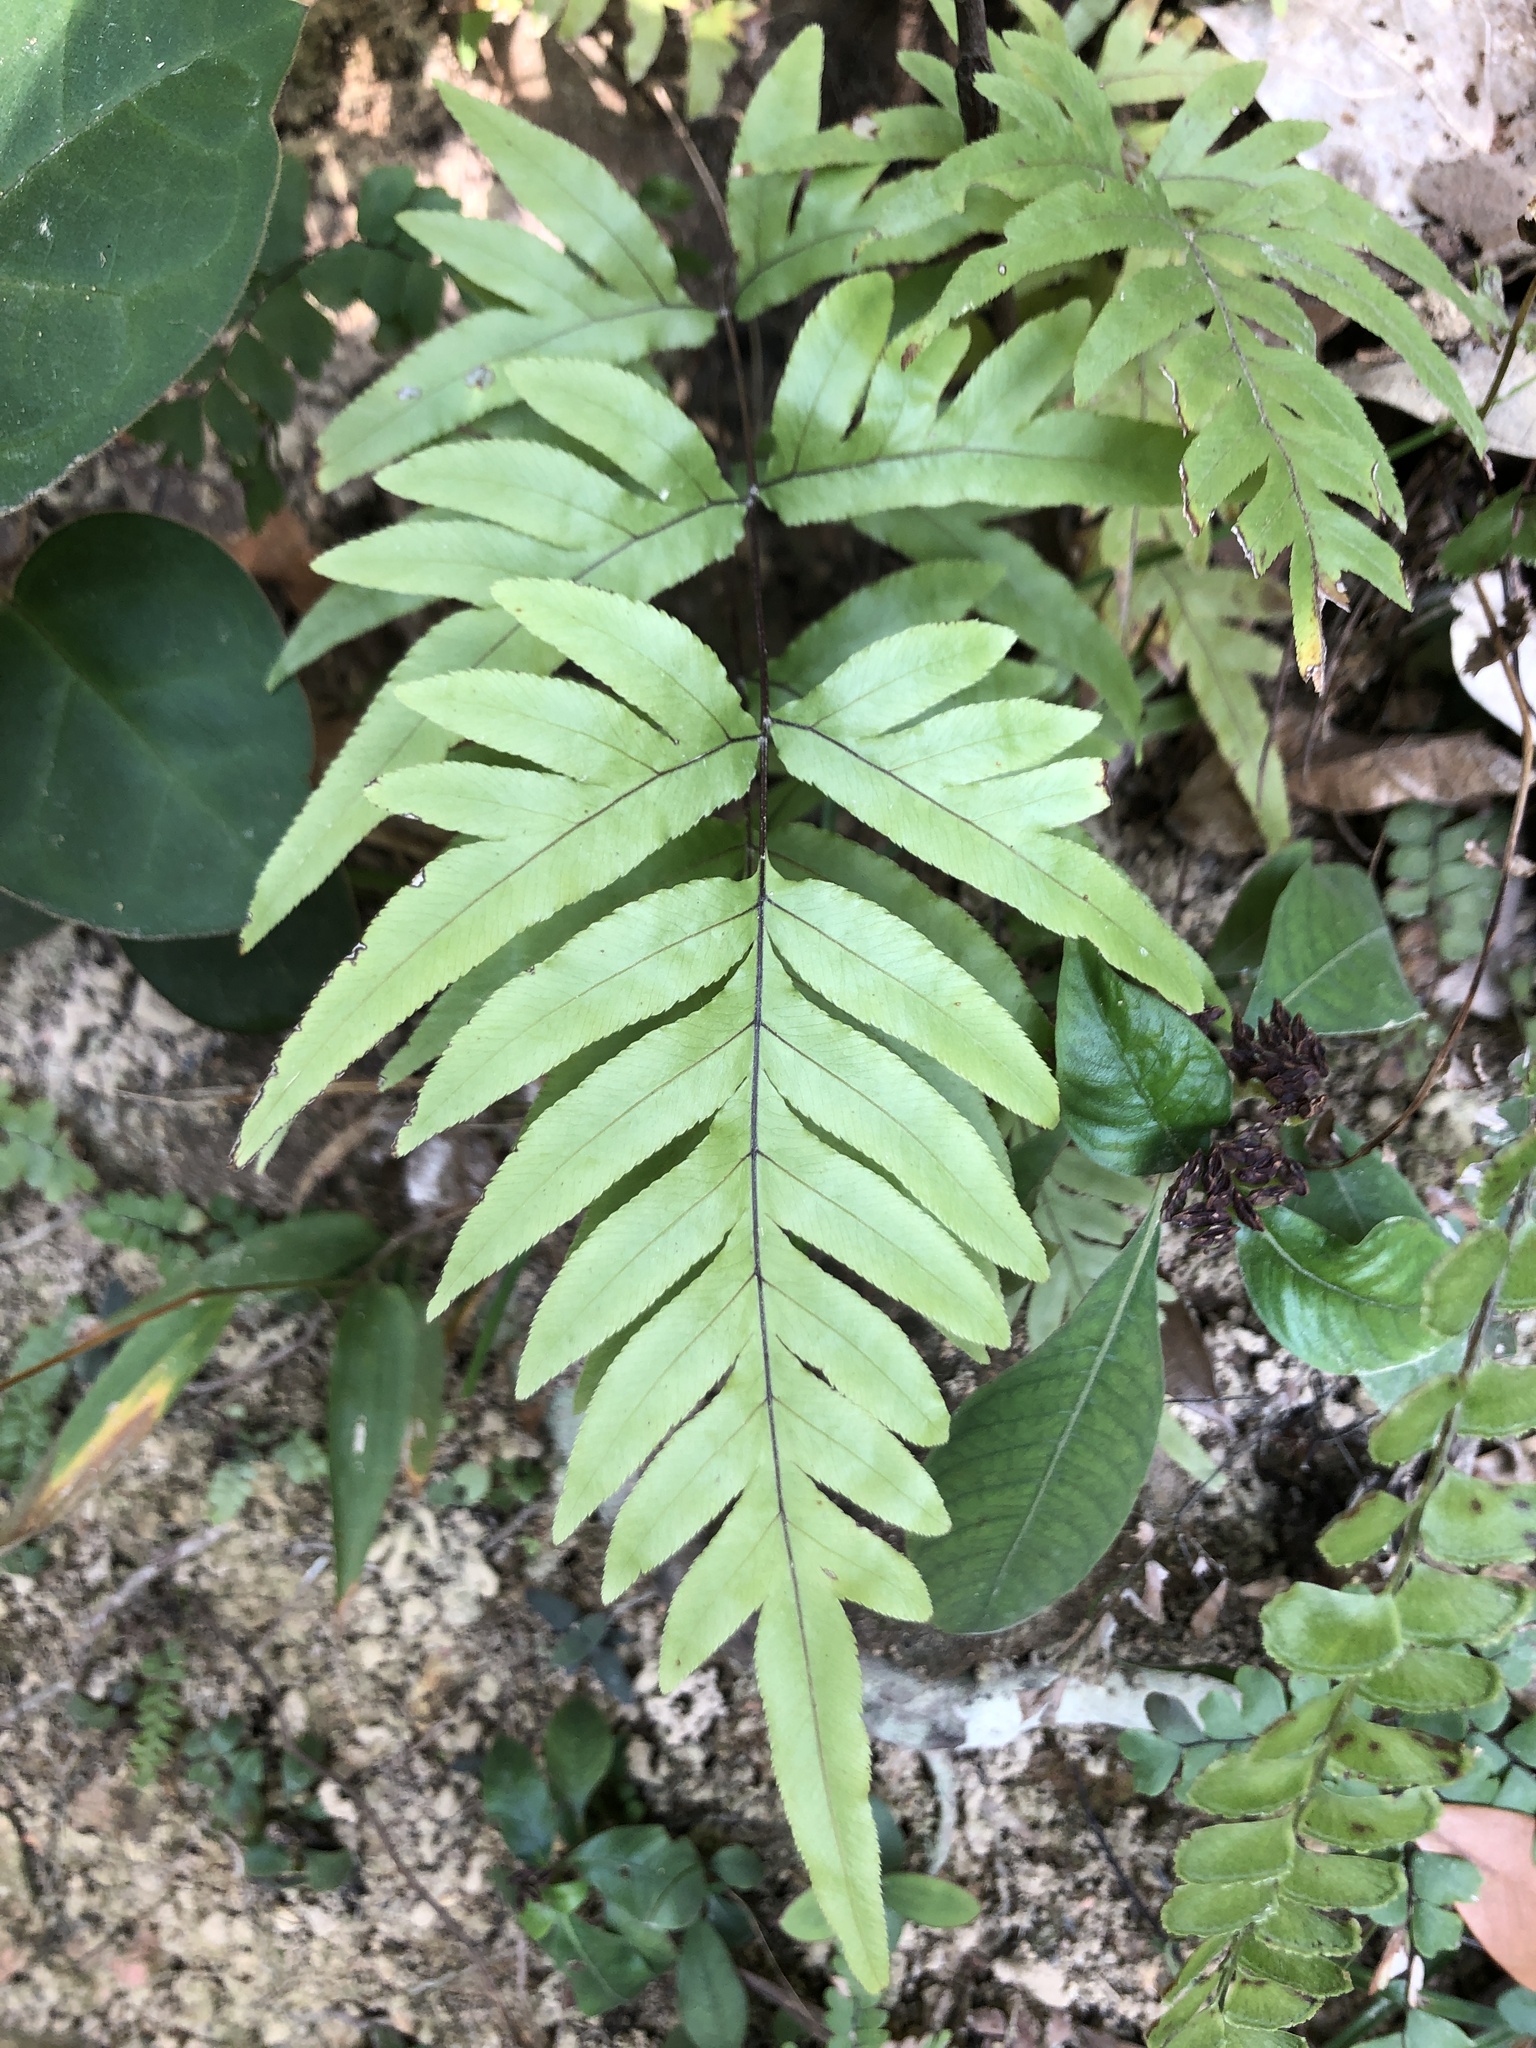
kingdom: Plantae
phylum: Tracheophyta
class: Polypodiopsida
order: Polypodiales
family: Pteridaceae
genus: Pteris
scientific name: Pteris semipinnata
